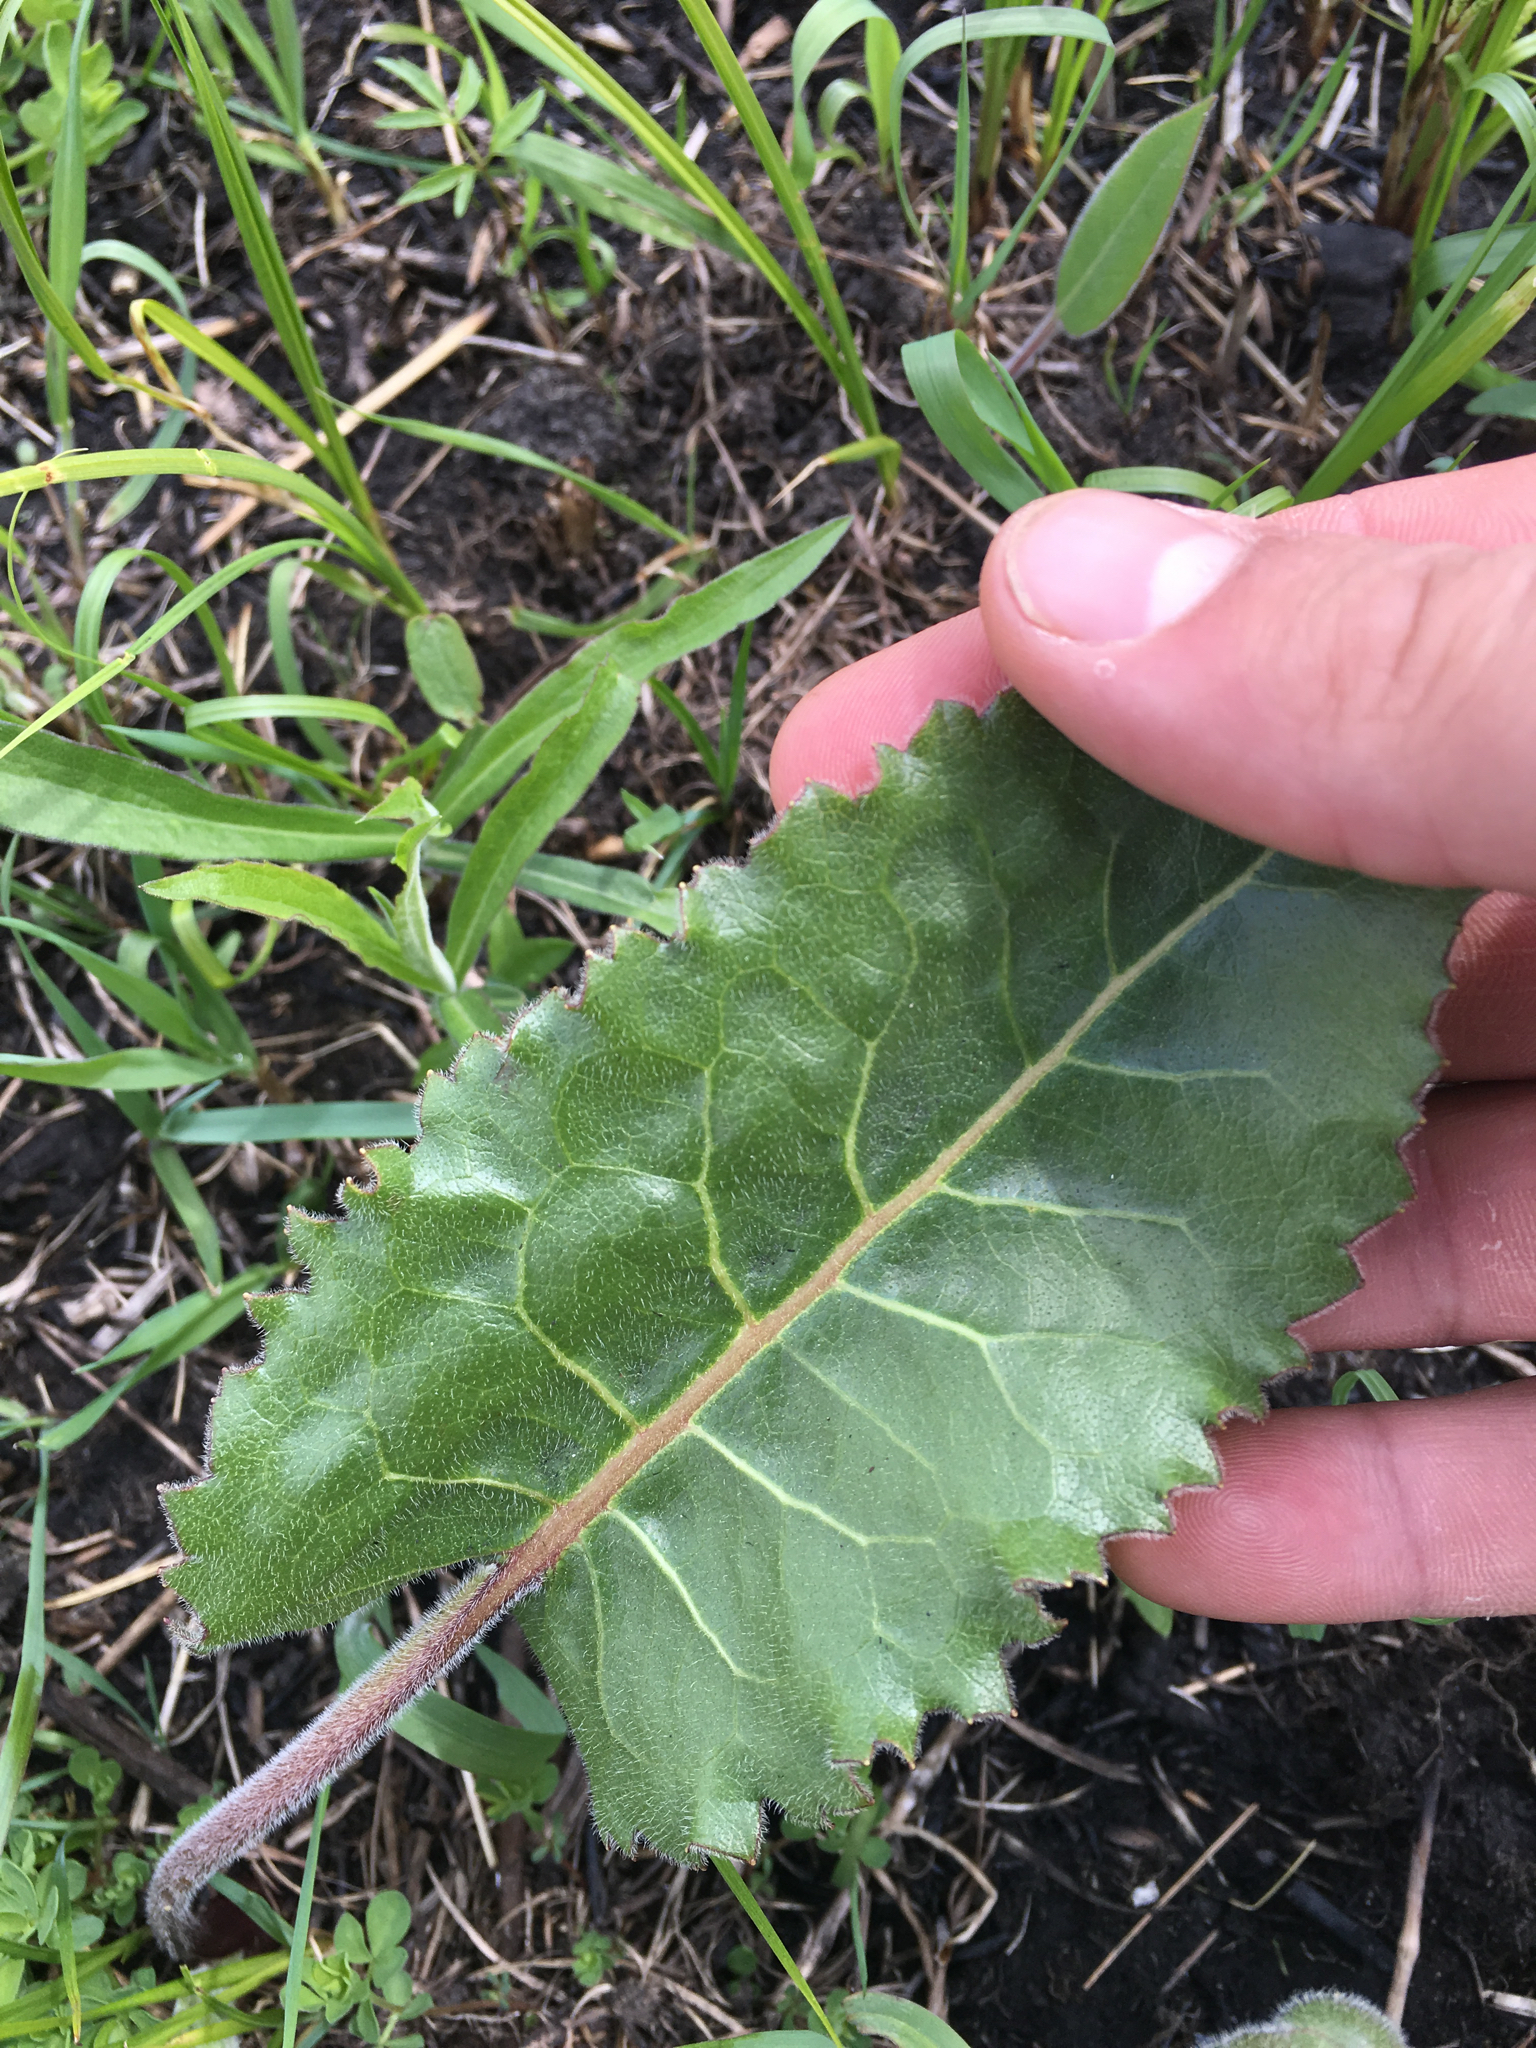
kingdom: Plantae
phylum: Tracheophyta
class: Magnoliopsida
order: Asterales
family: Asteraceae
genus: Silphium
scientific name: Silphium terebinthinaceum
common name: Basal-leaf rosinweed
